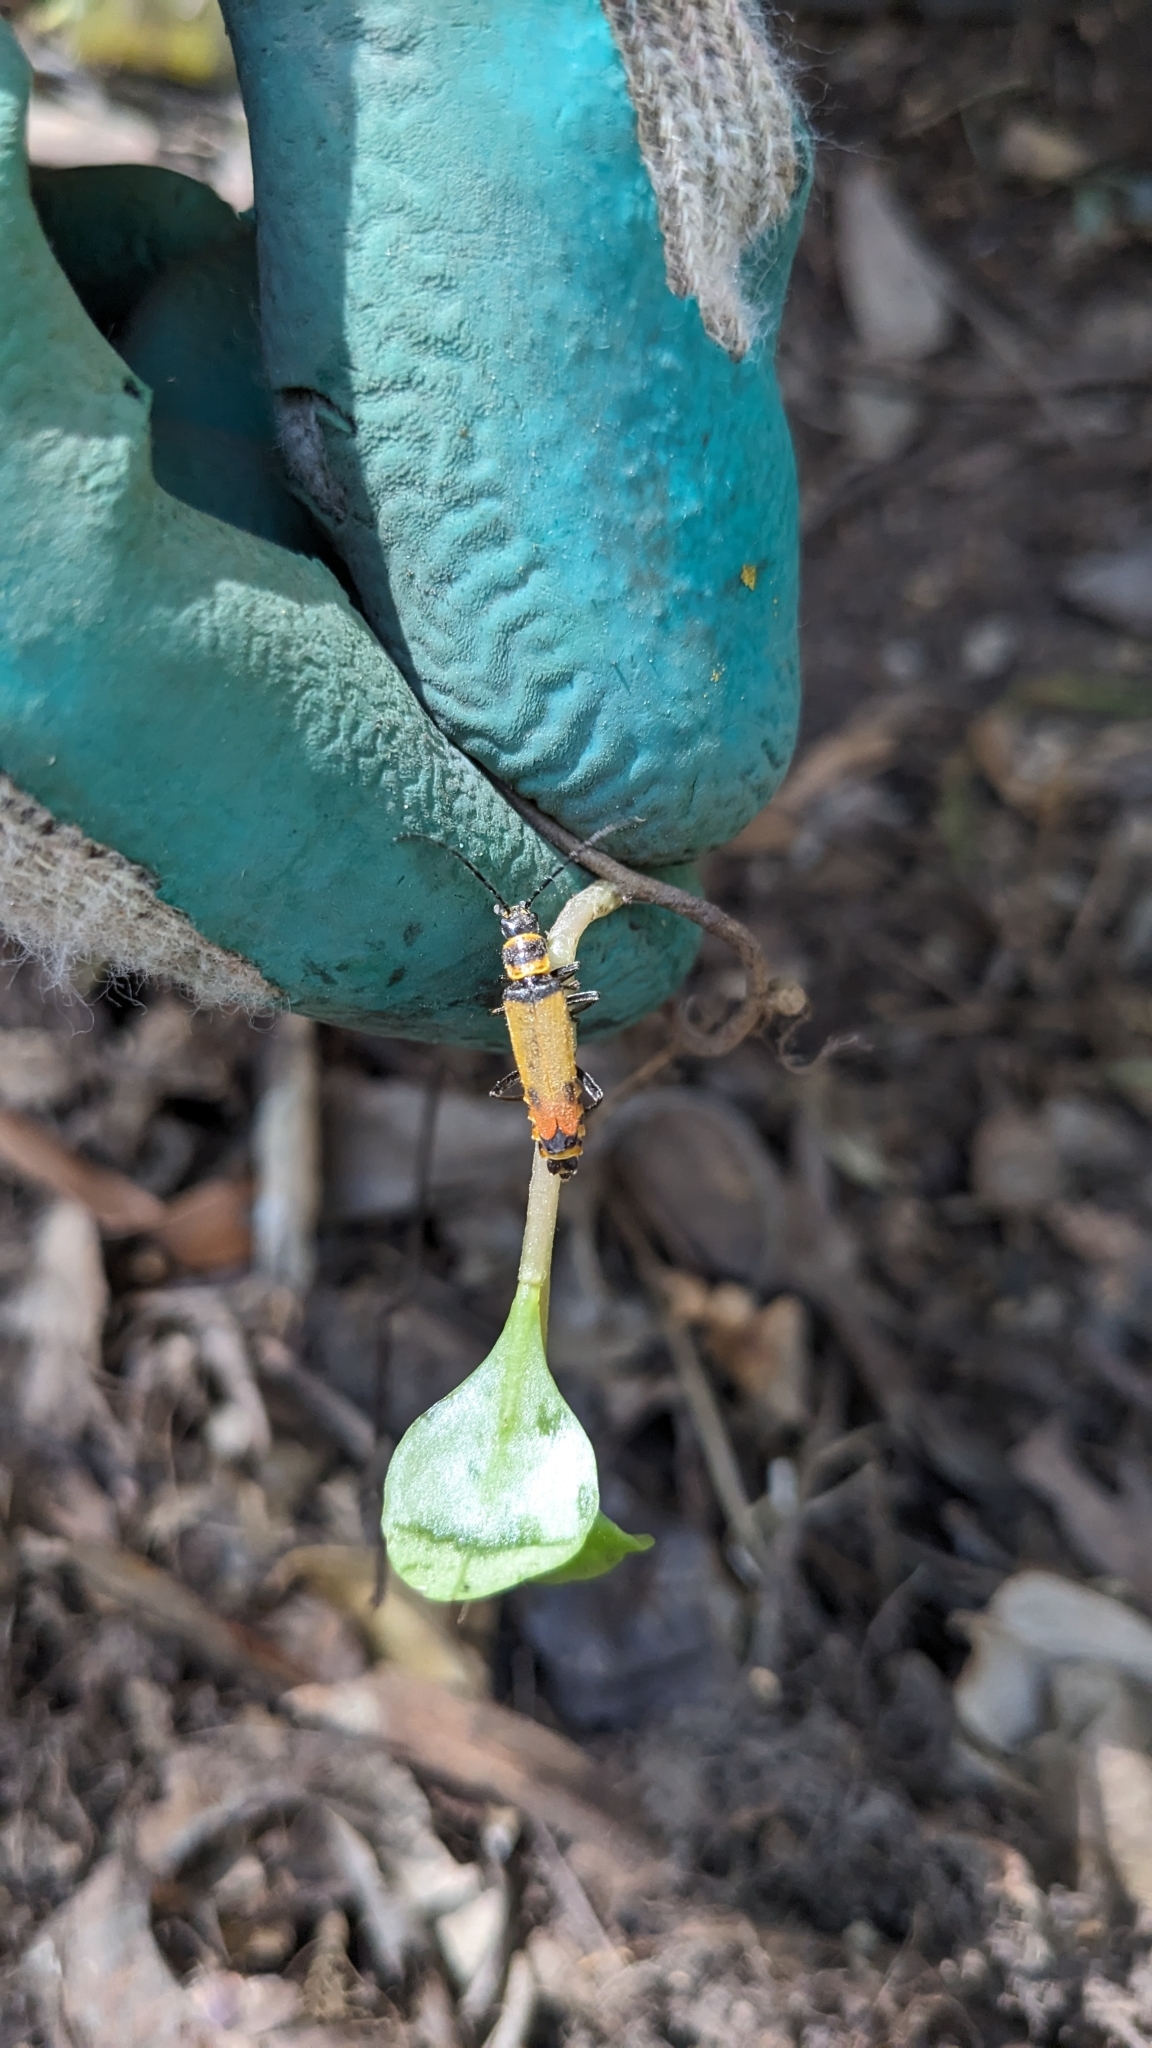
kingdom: Animalia
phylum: Arthropoda
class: Insecta
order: Coleoptera
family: Cantharidae
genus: Chauliognathus
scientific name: Chauliognathus
